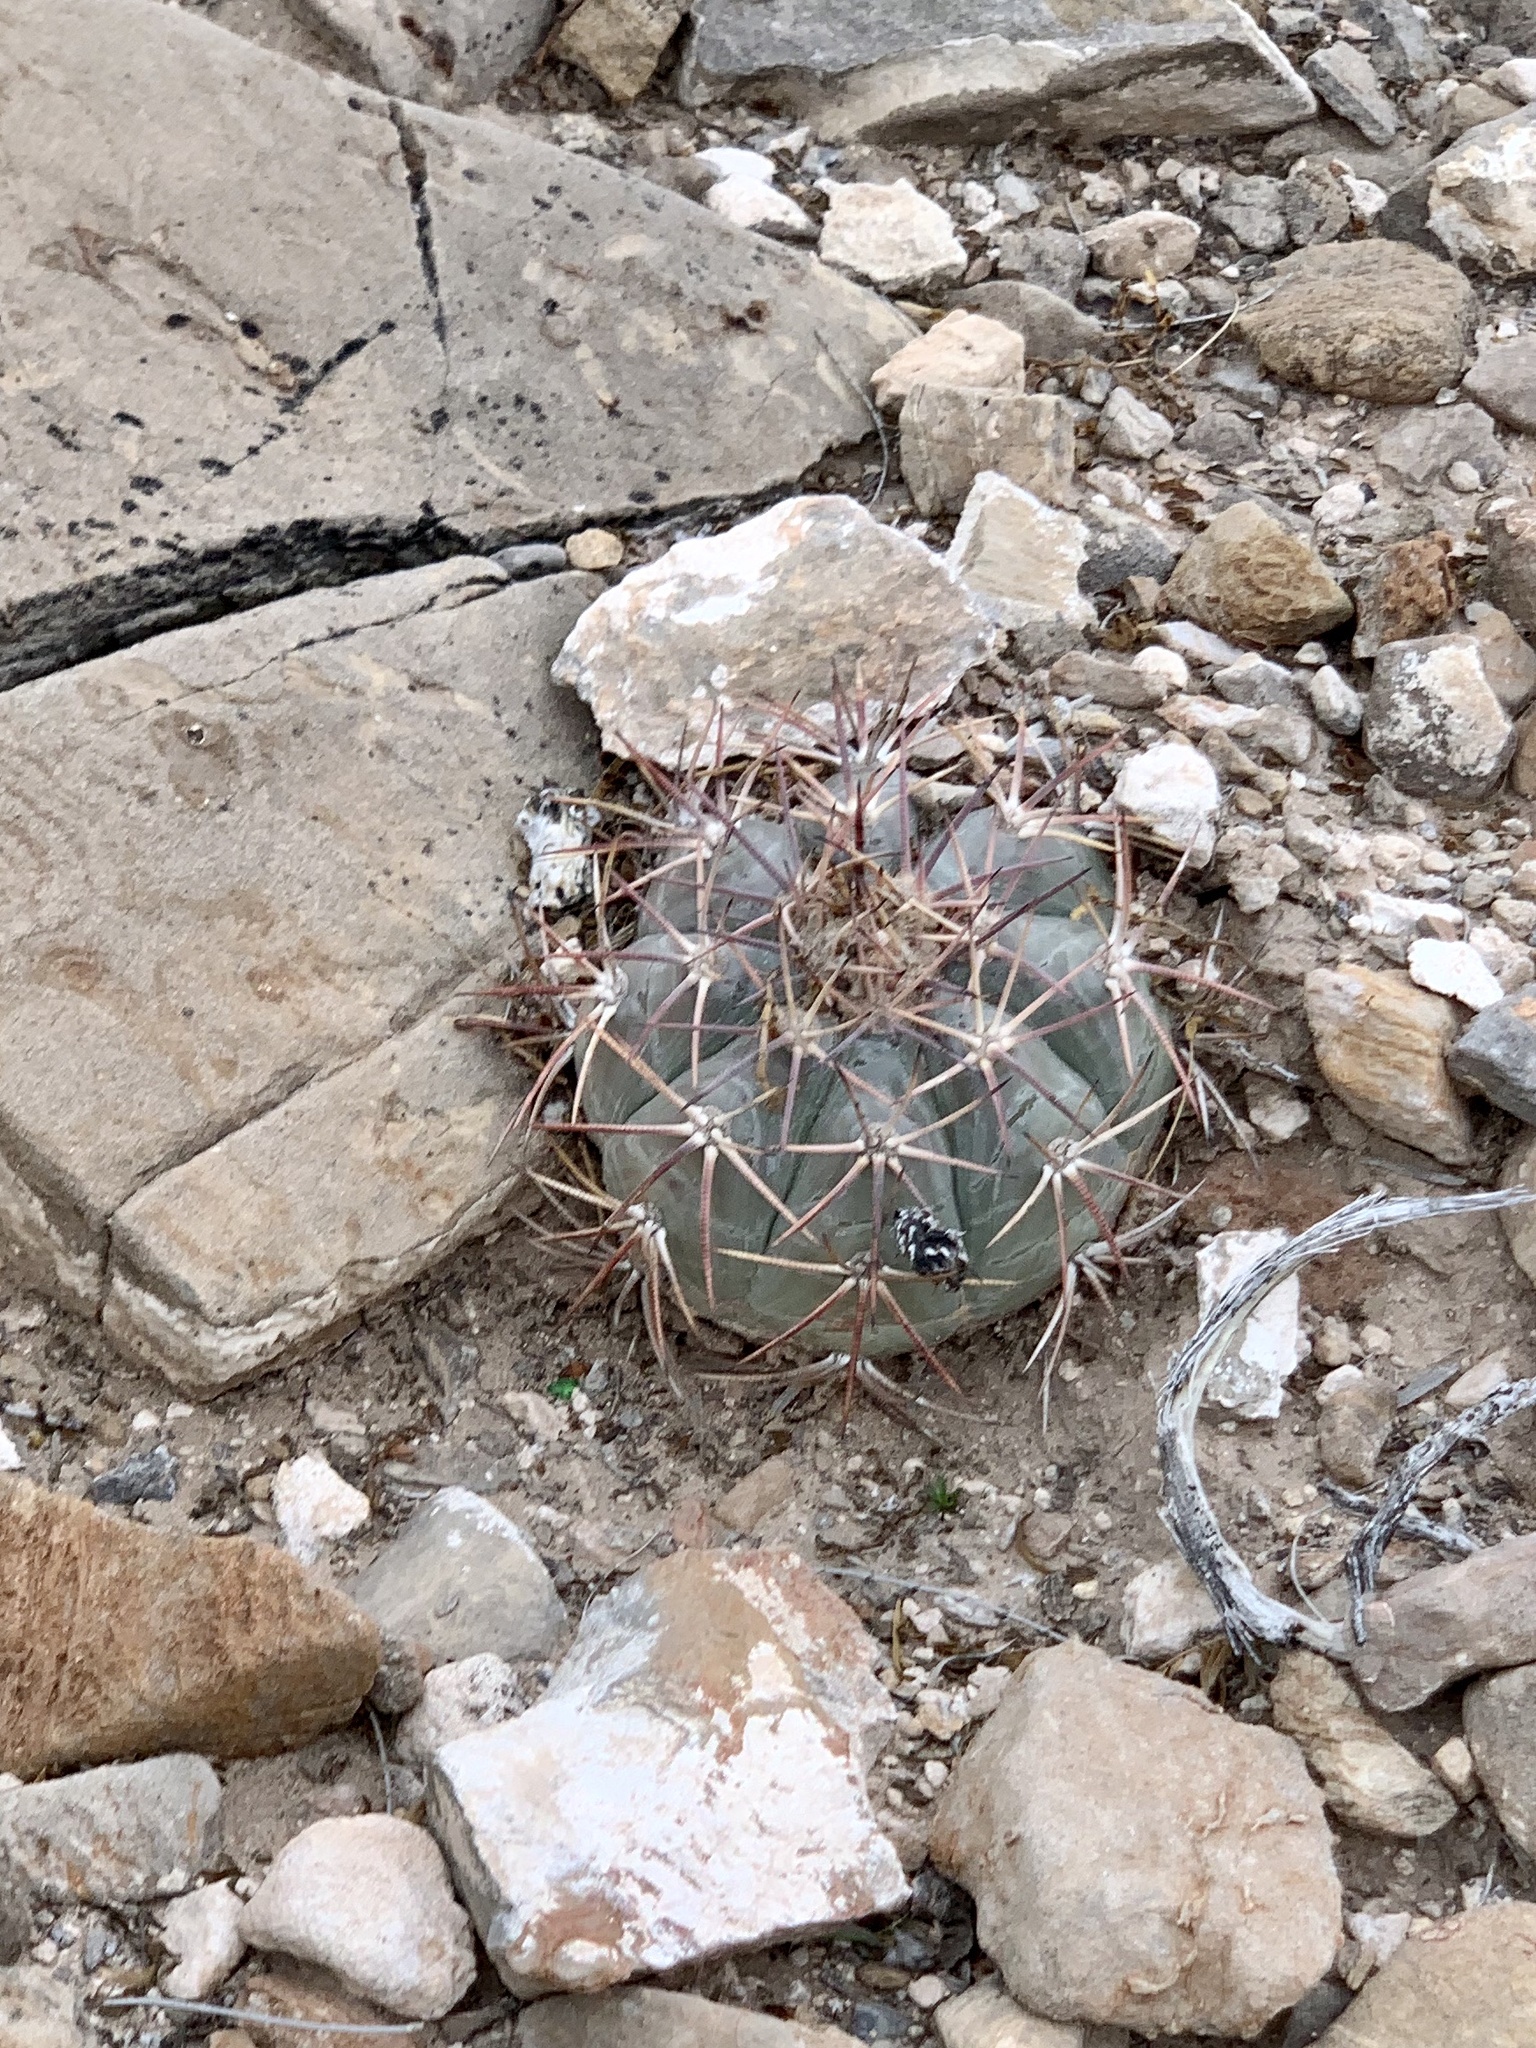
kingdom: Plantae
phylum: Tracheophyta
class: Magnoliopsida
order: Caryophyllales
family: Cactaceae
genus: Echinocactus
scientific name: Echinocactus horizonthalonius
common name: Devilshead
